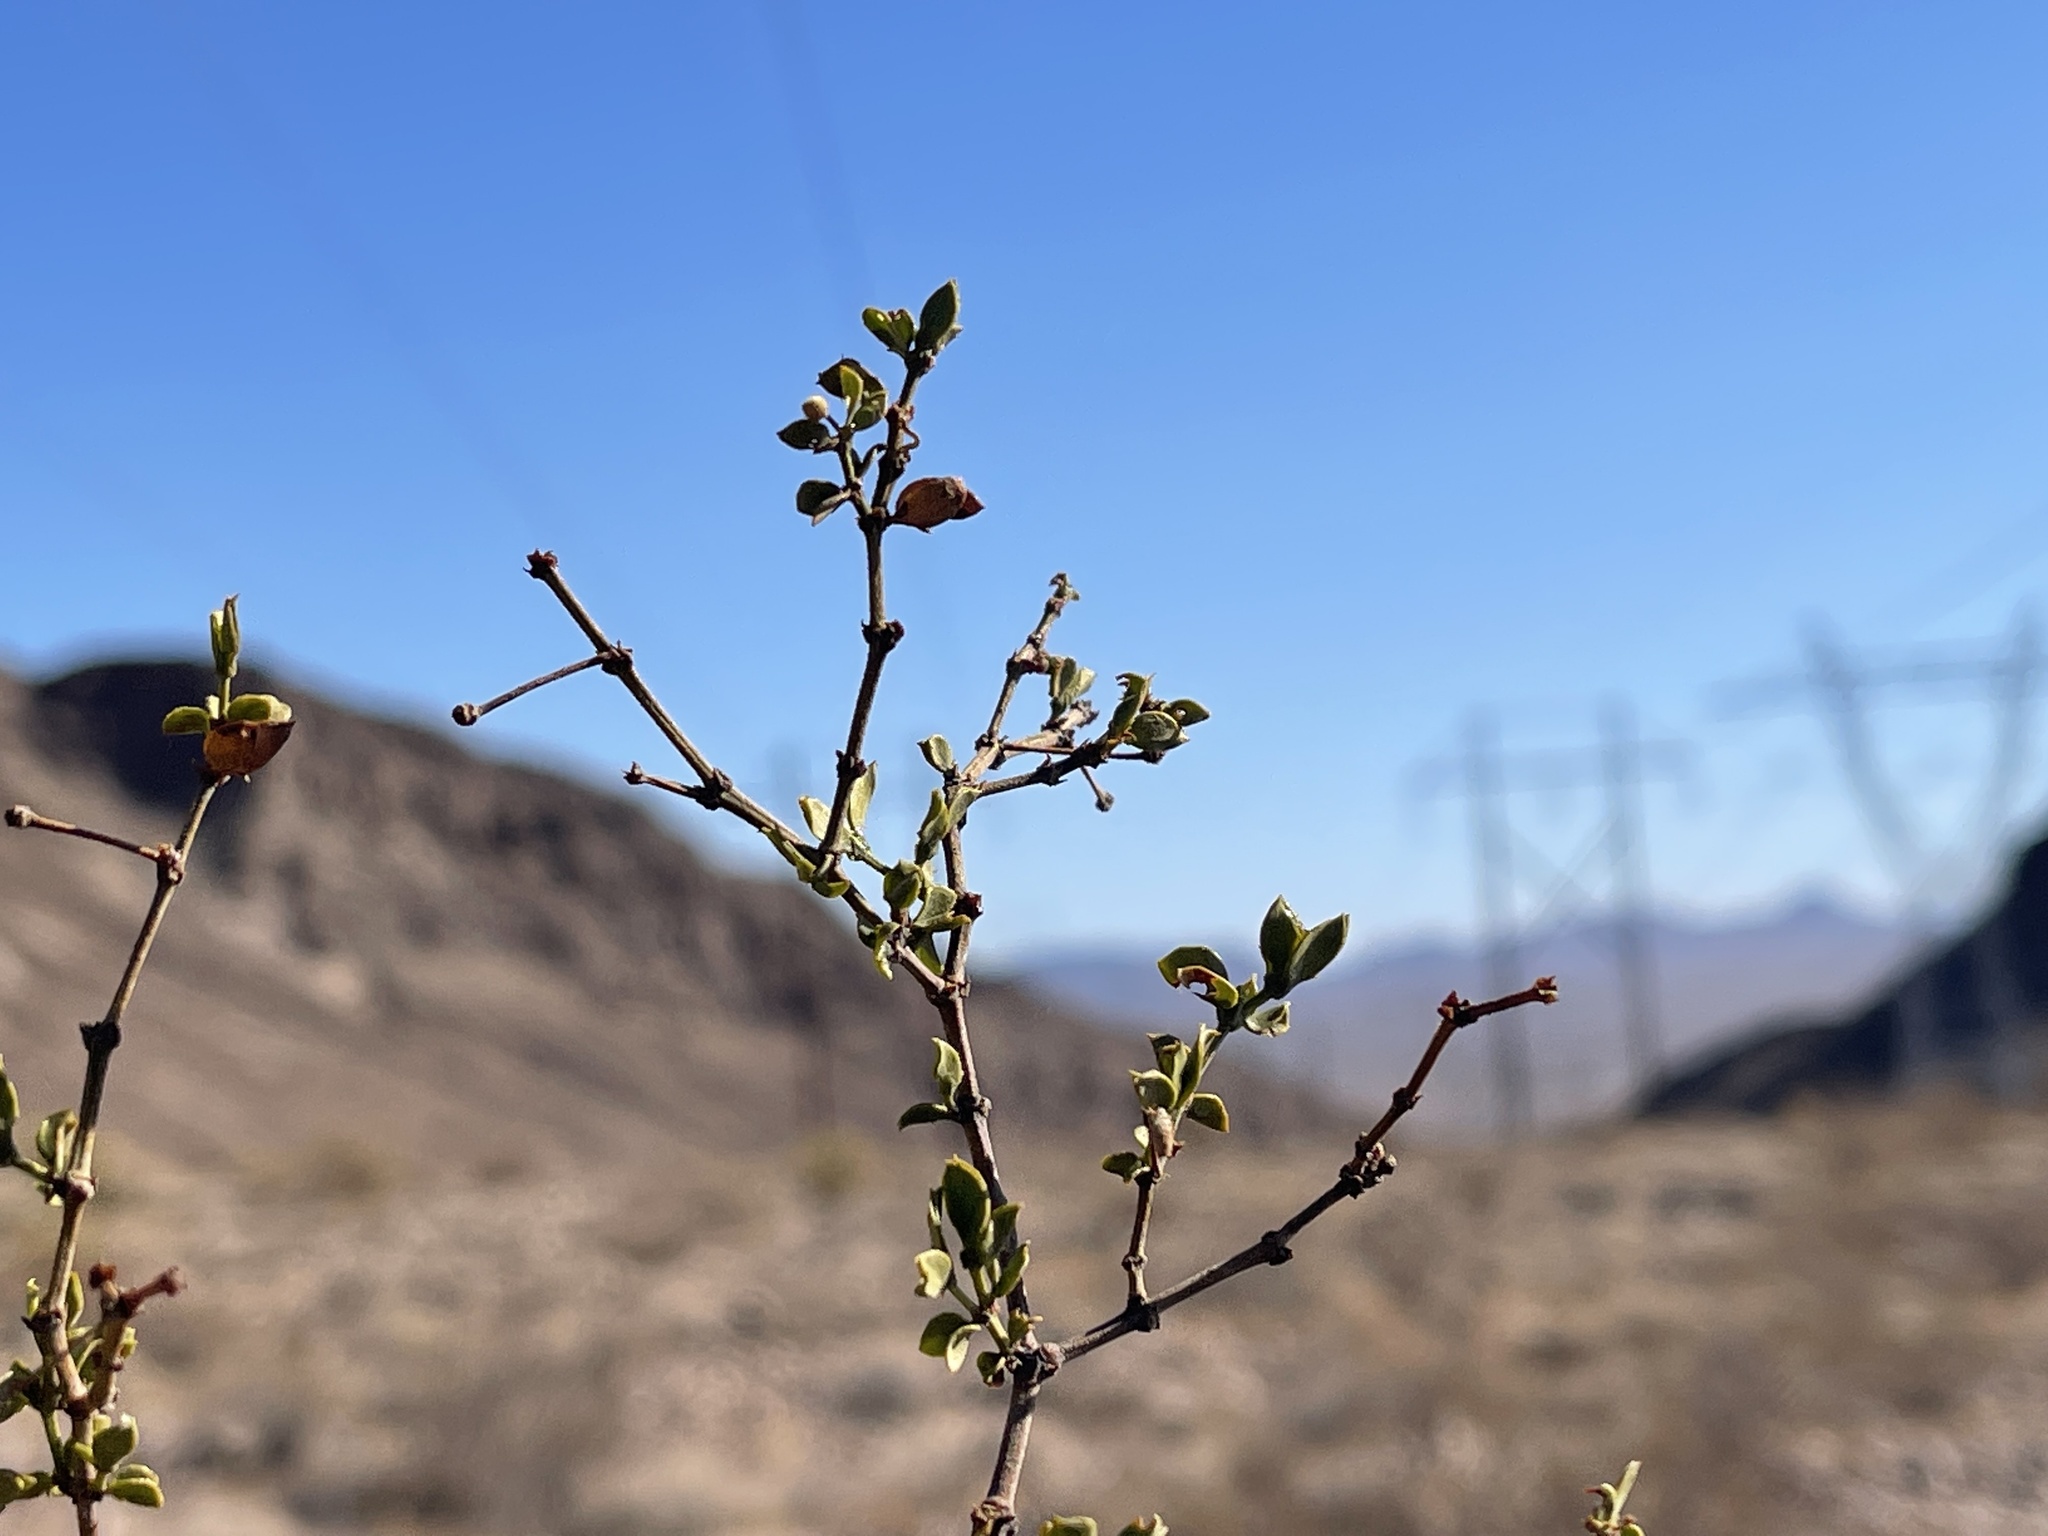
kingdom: Plantae
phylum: Tracheophyta
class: Magnoliopsida
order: Zygophyllales
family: Zygophyllaceae
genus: Larrea
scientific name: Larrea tridentata
